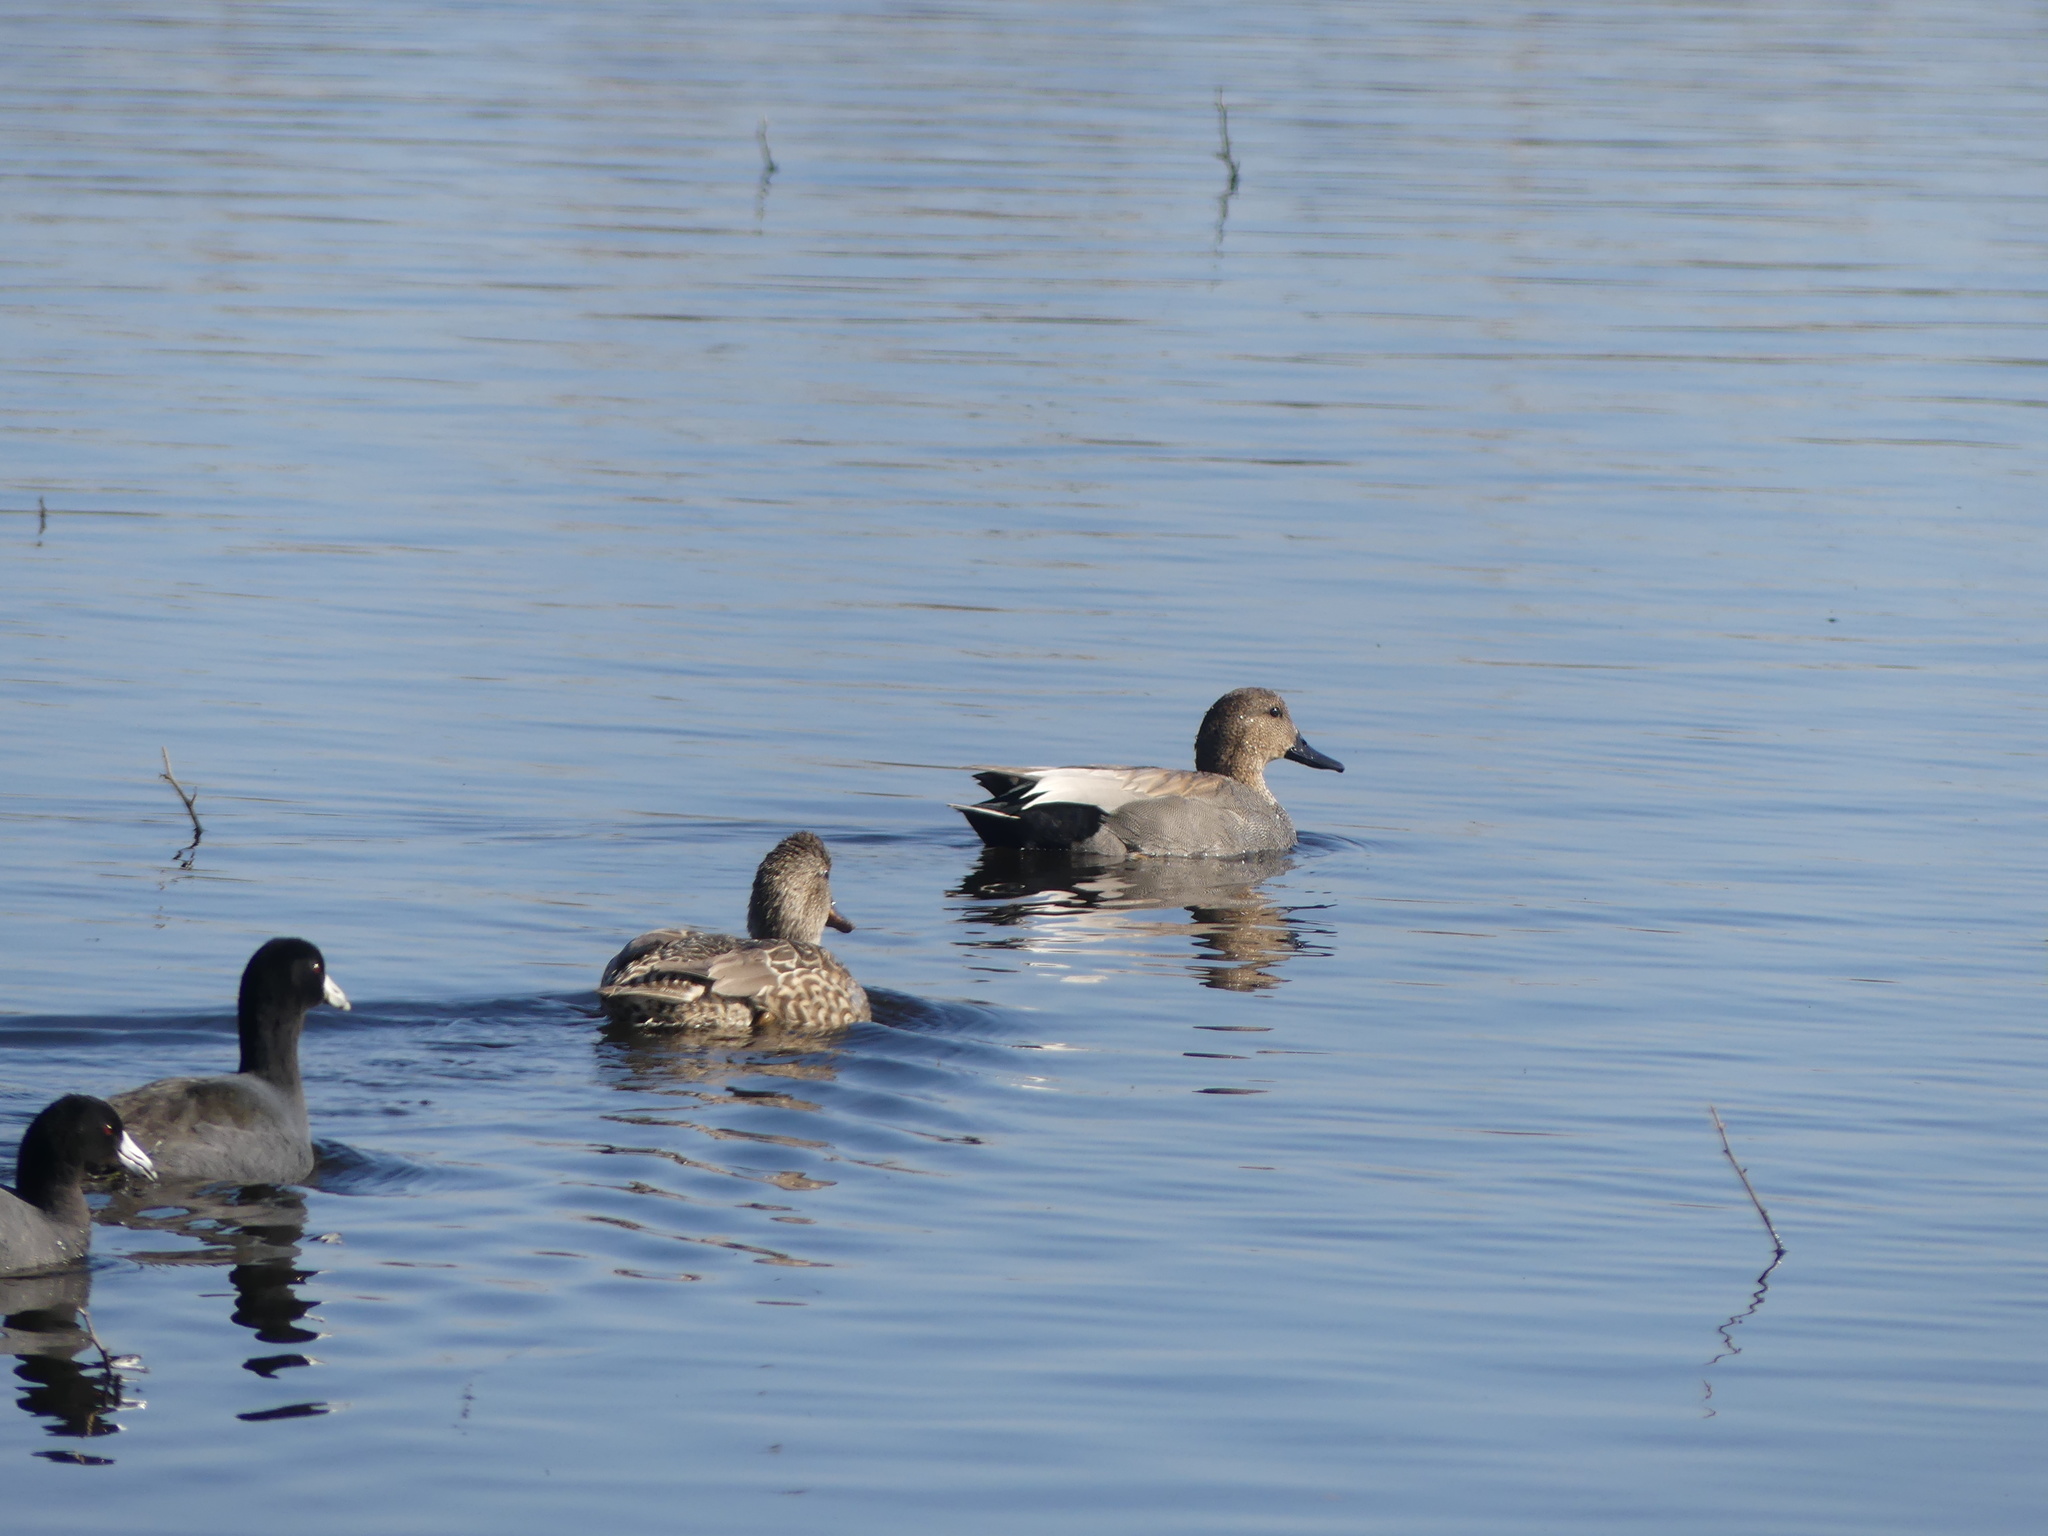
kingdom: Animalia
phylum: Chordata
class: Aves
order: Anseriformes
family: Anatidae
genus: Mareca
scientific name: Mareca strepera
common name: Gadwall
